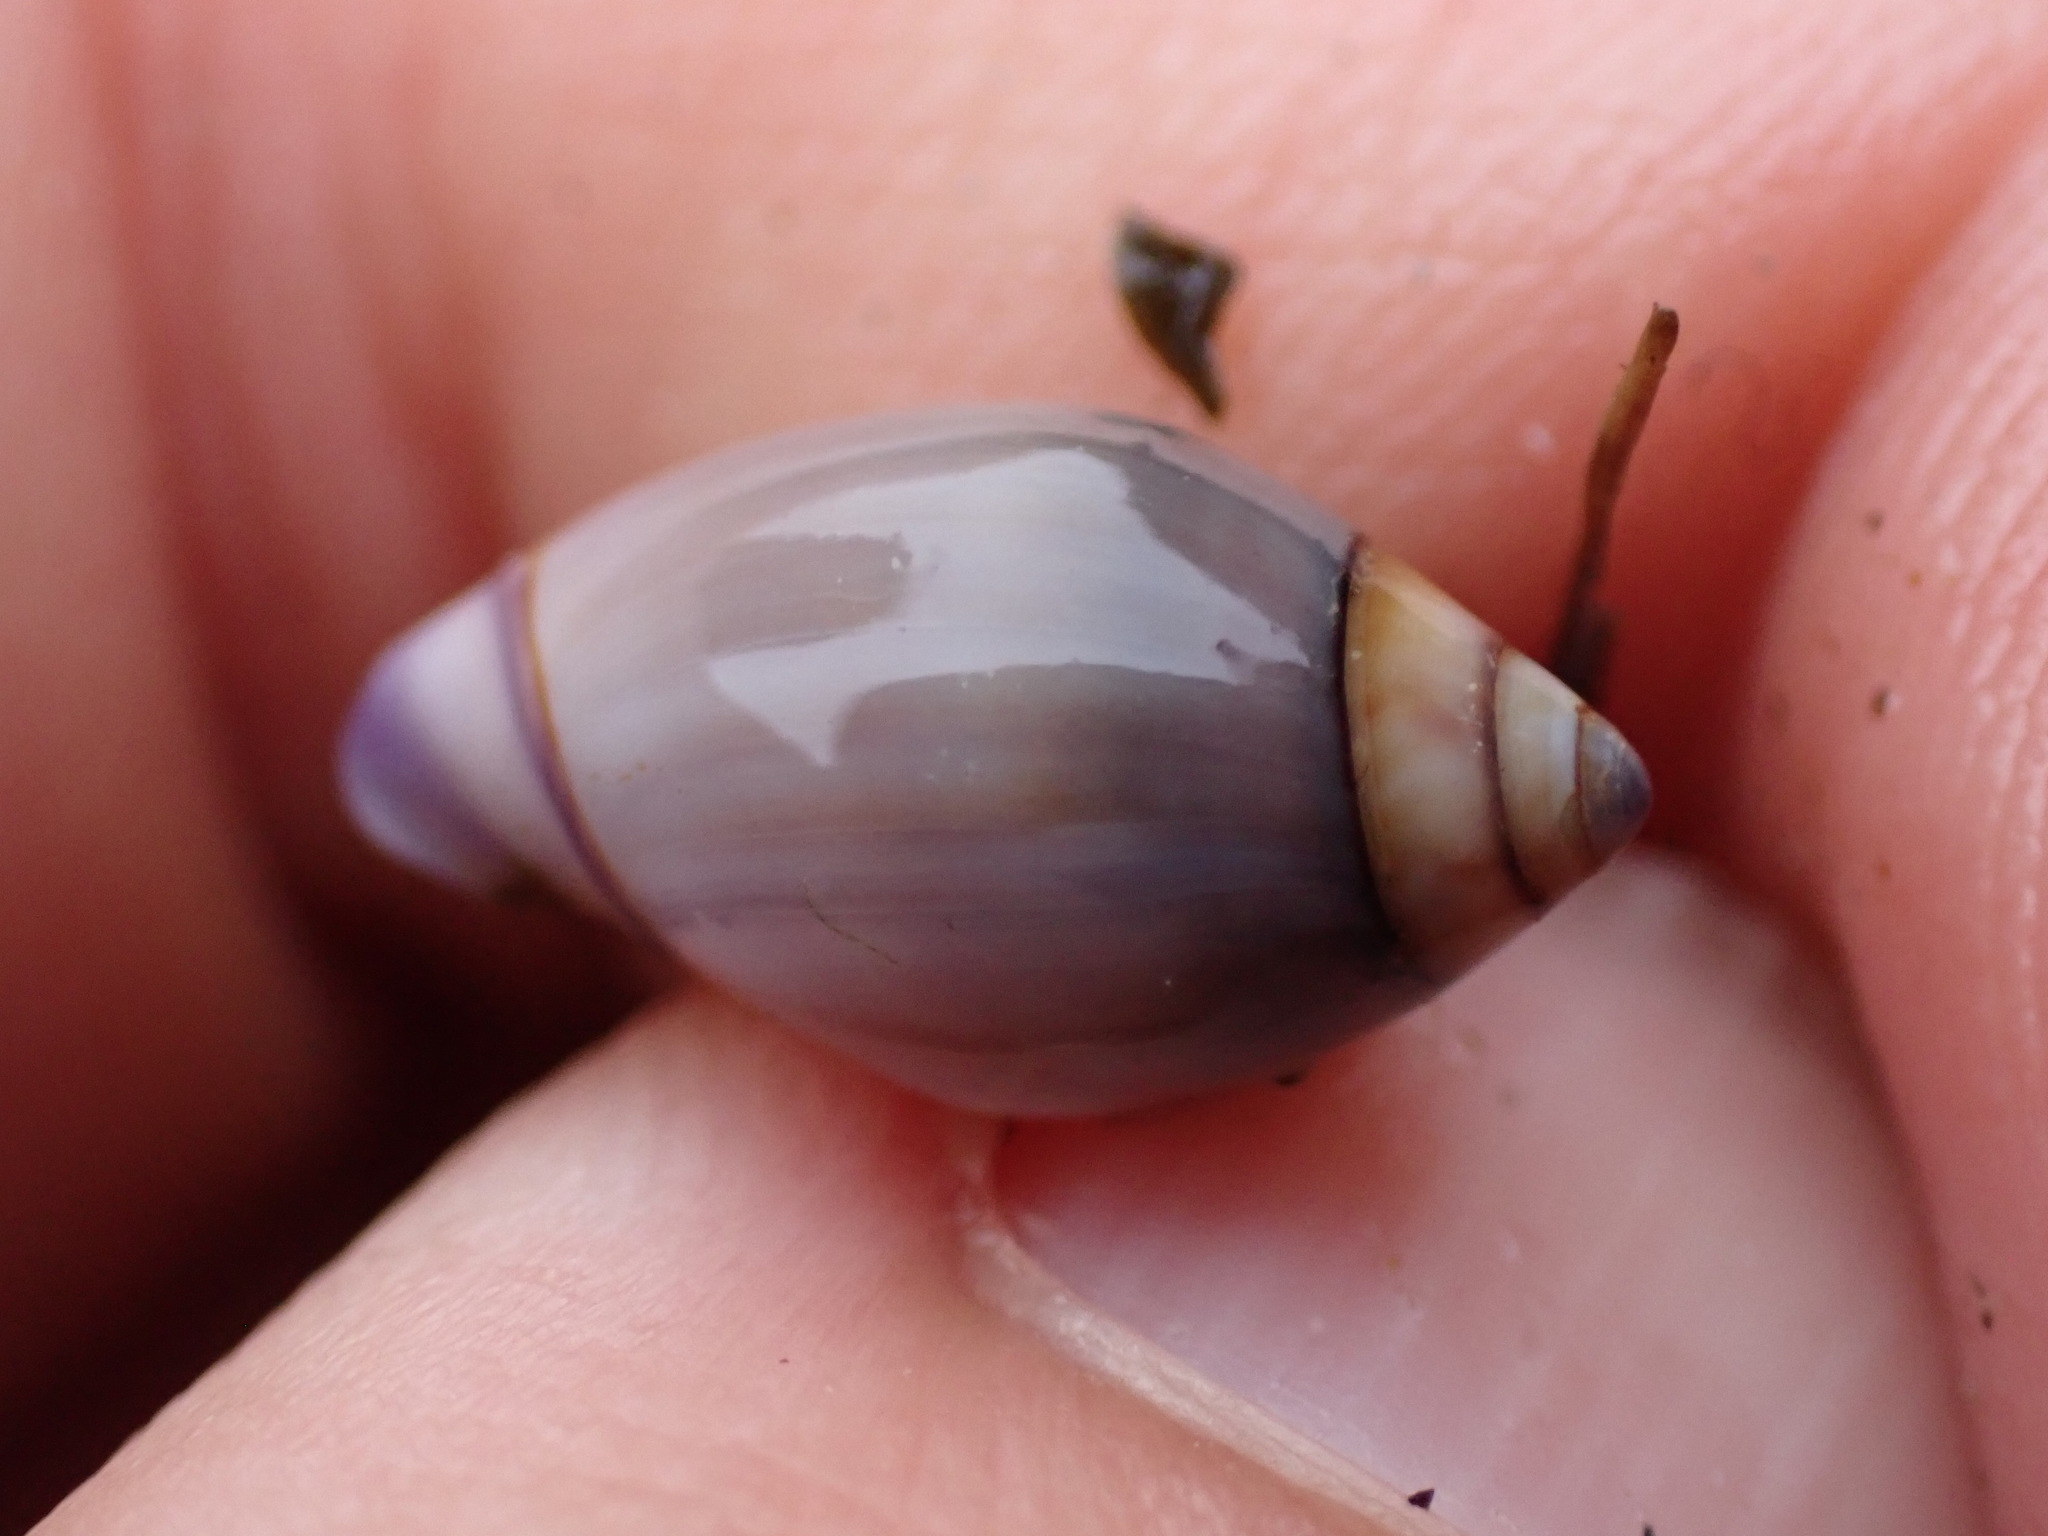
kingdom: Animalia
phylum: Mollusca
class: Gastropoda
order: Neogastropoda
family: Olividae
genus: Callianax
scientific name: Callianax biplicata
